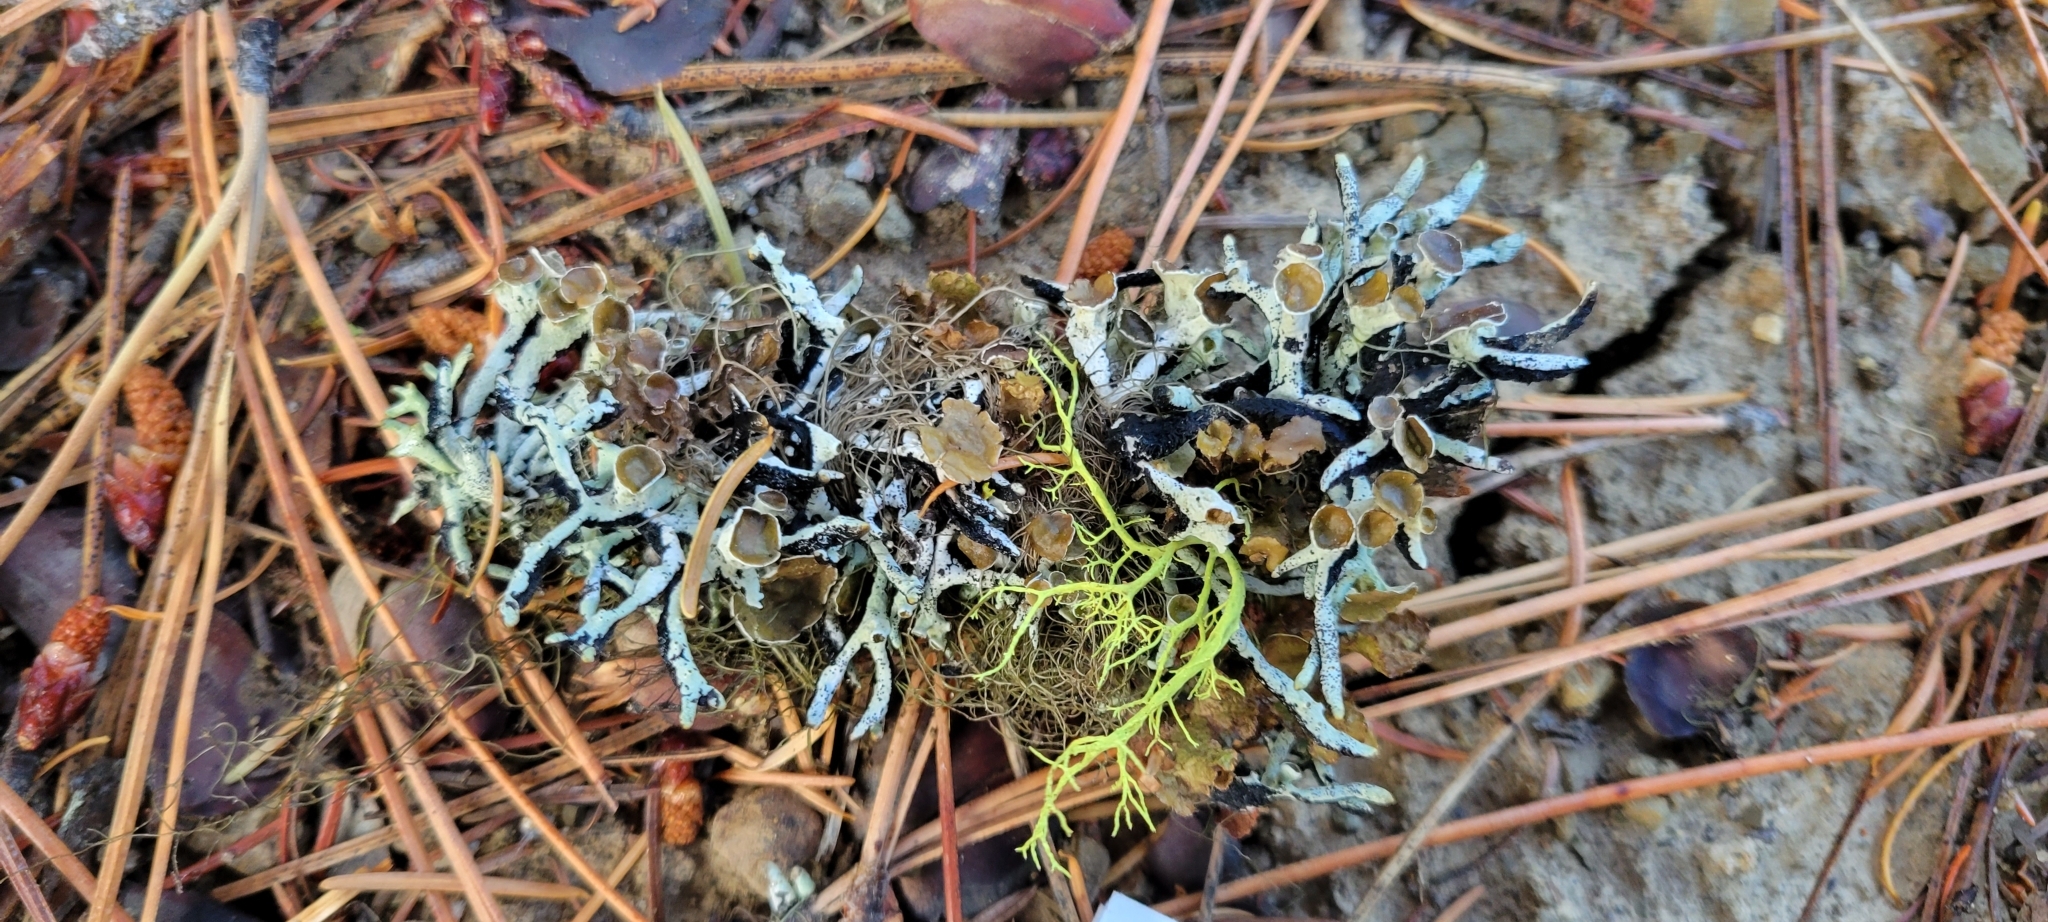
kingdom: Fungi
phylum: Ascomycota
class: Lecanoromycetes
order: Lecanorales
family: Parmeliaceae
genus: Hypogymnia
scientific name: Hypogymnia imshaugii
